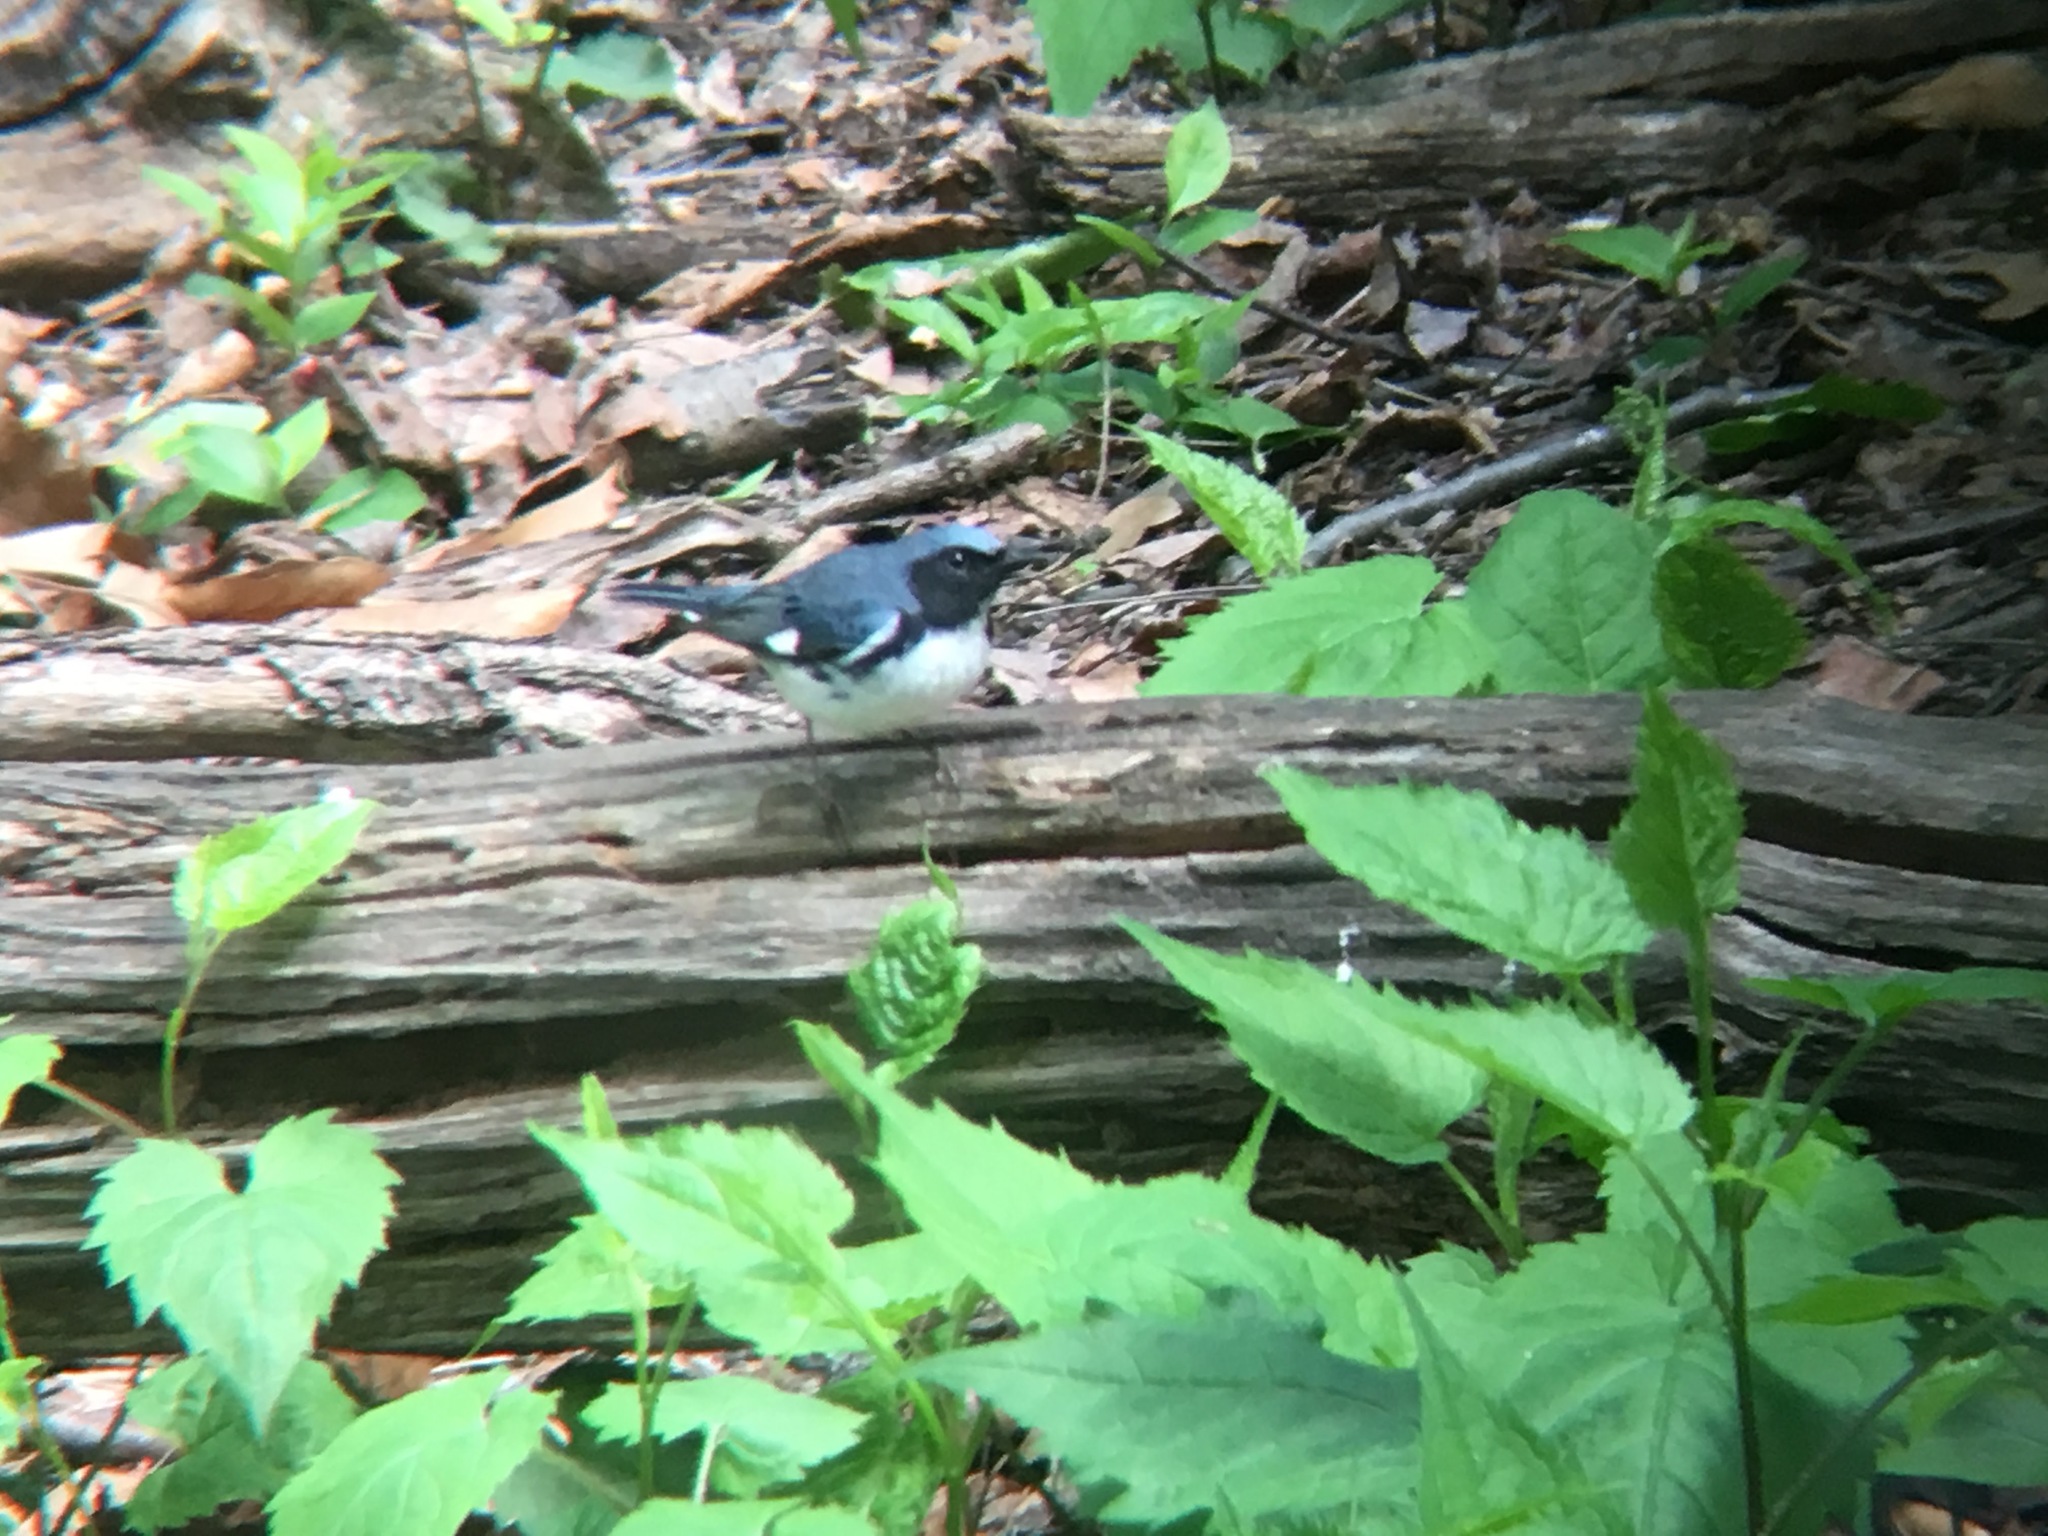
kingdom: Animalia
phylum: Chordata
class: Aves
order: Passeriformes
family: Parulidae
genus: Setophaga
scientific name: Setophaga caerulescens
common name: Black-throated blue warbler
